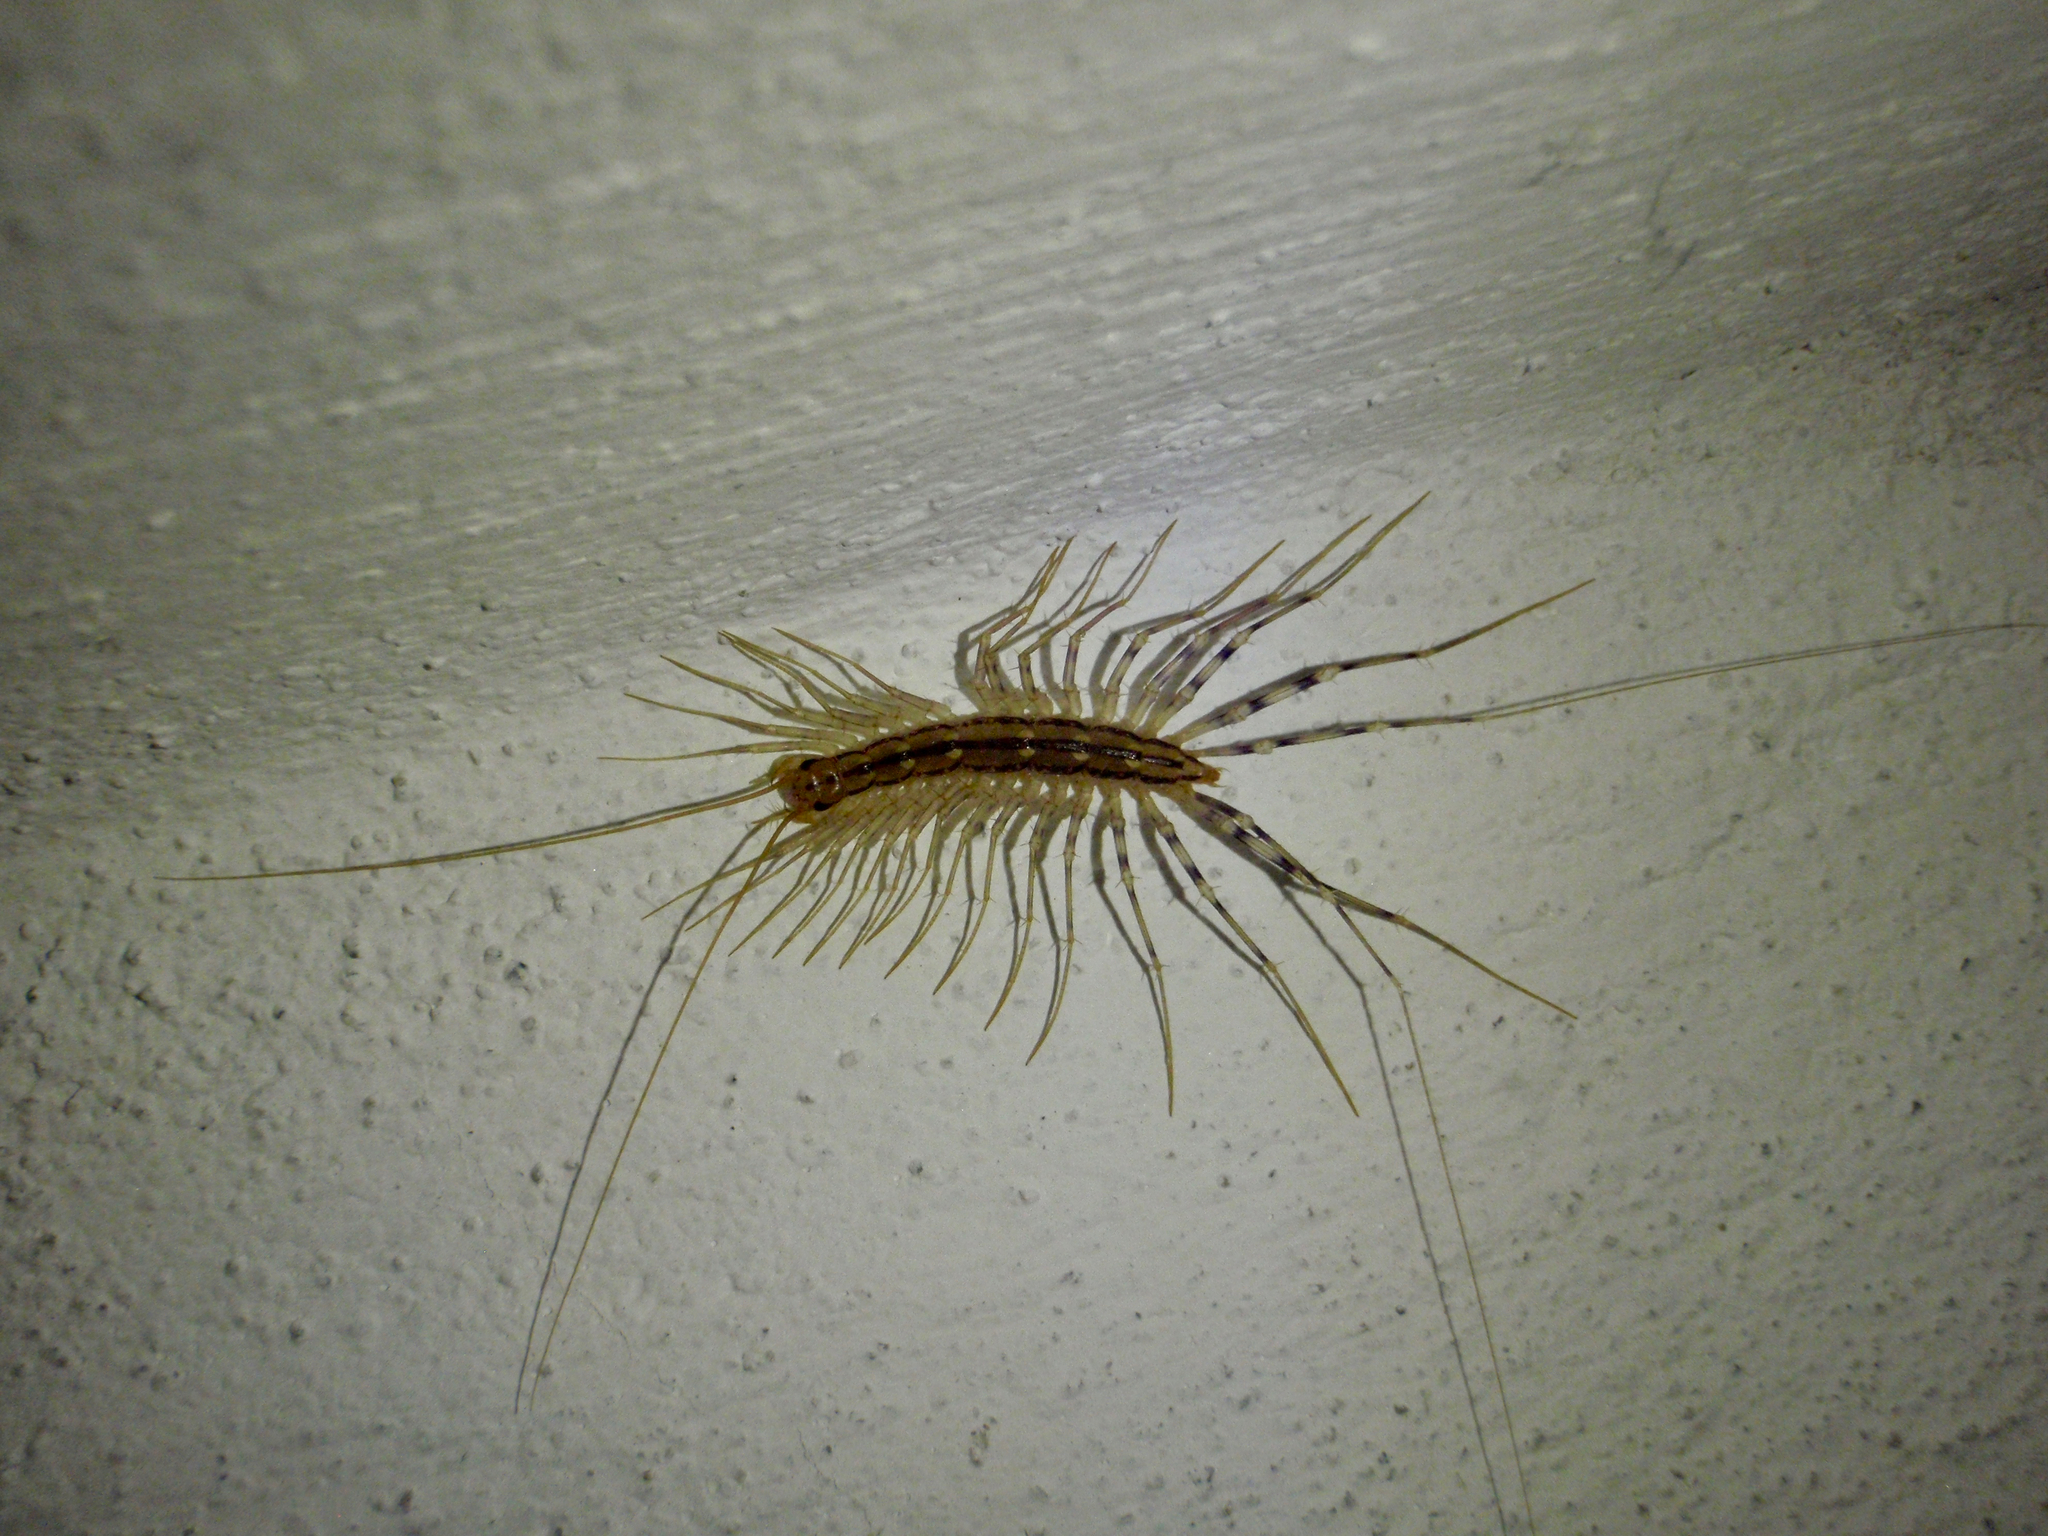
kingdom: Animalia
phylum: Arthropoda
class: Chilopoda
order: Scutigeromorpha
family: Scutigeridae
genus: Scutigera
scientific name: Scutigera coleoptrata
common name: House centipede
